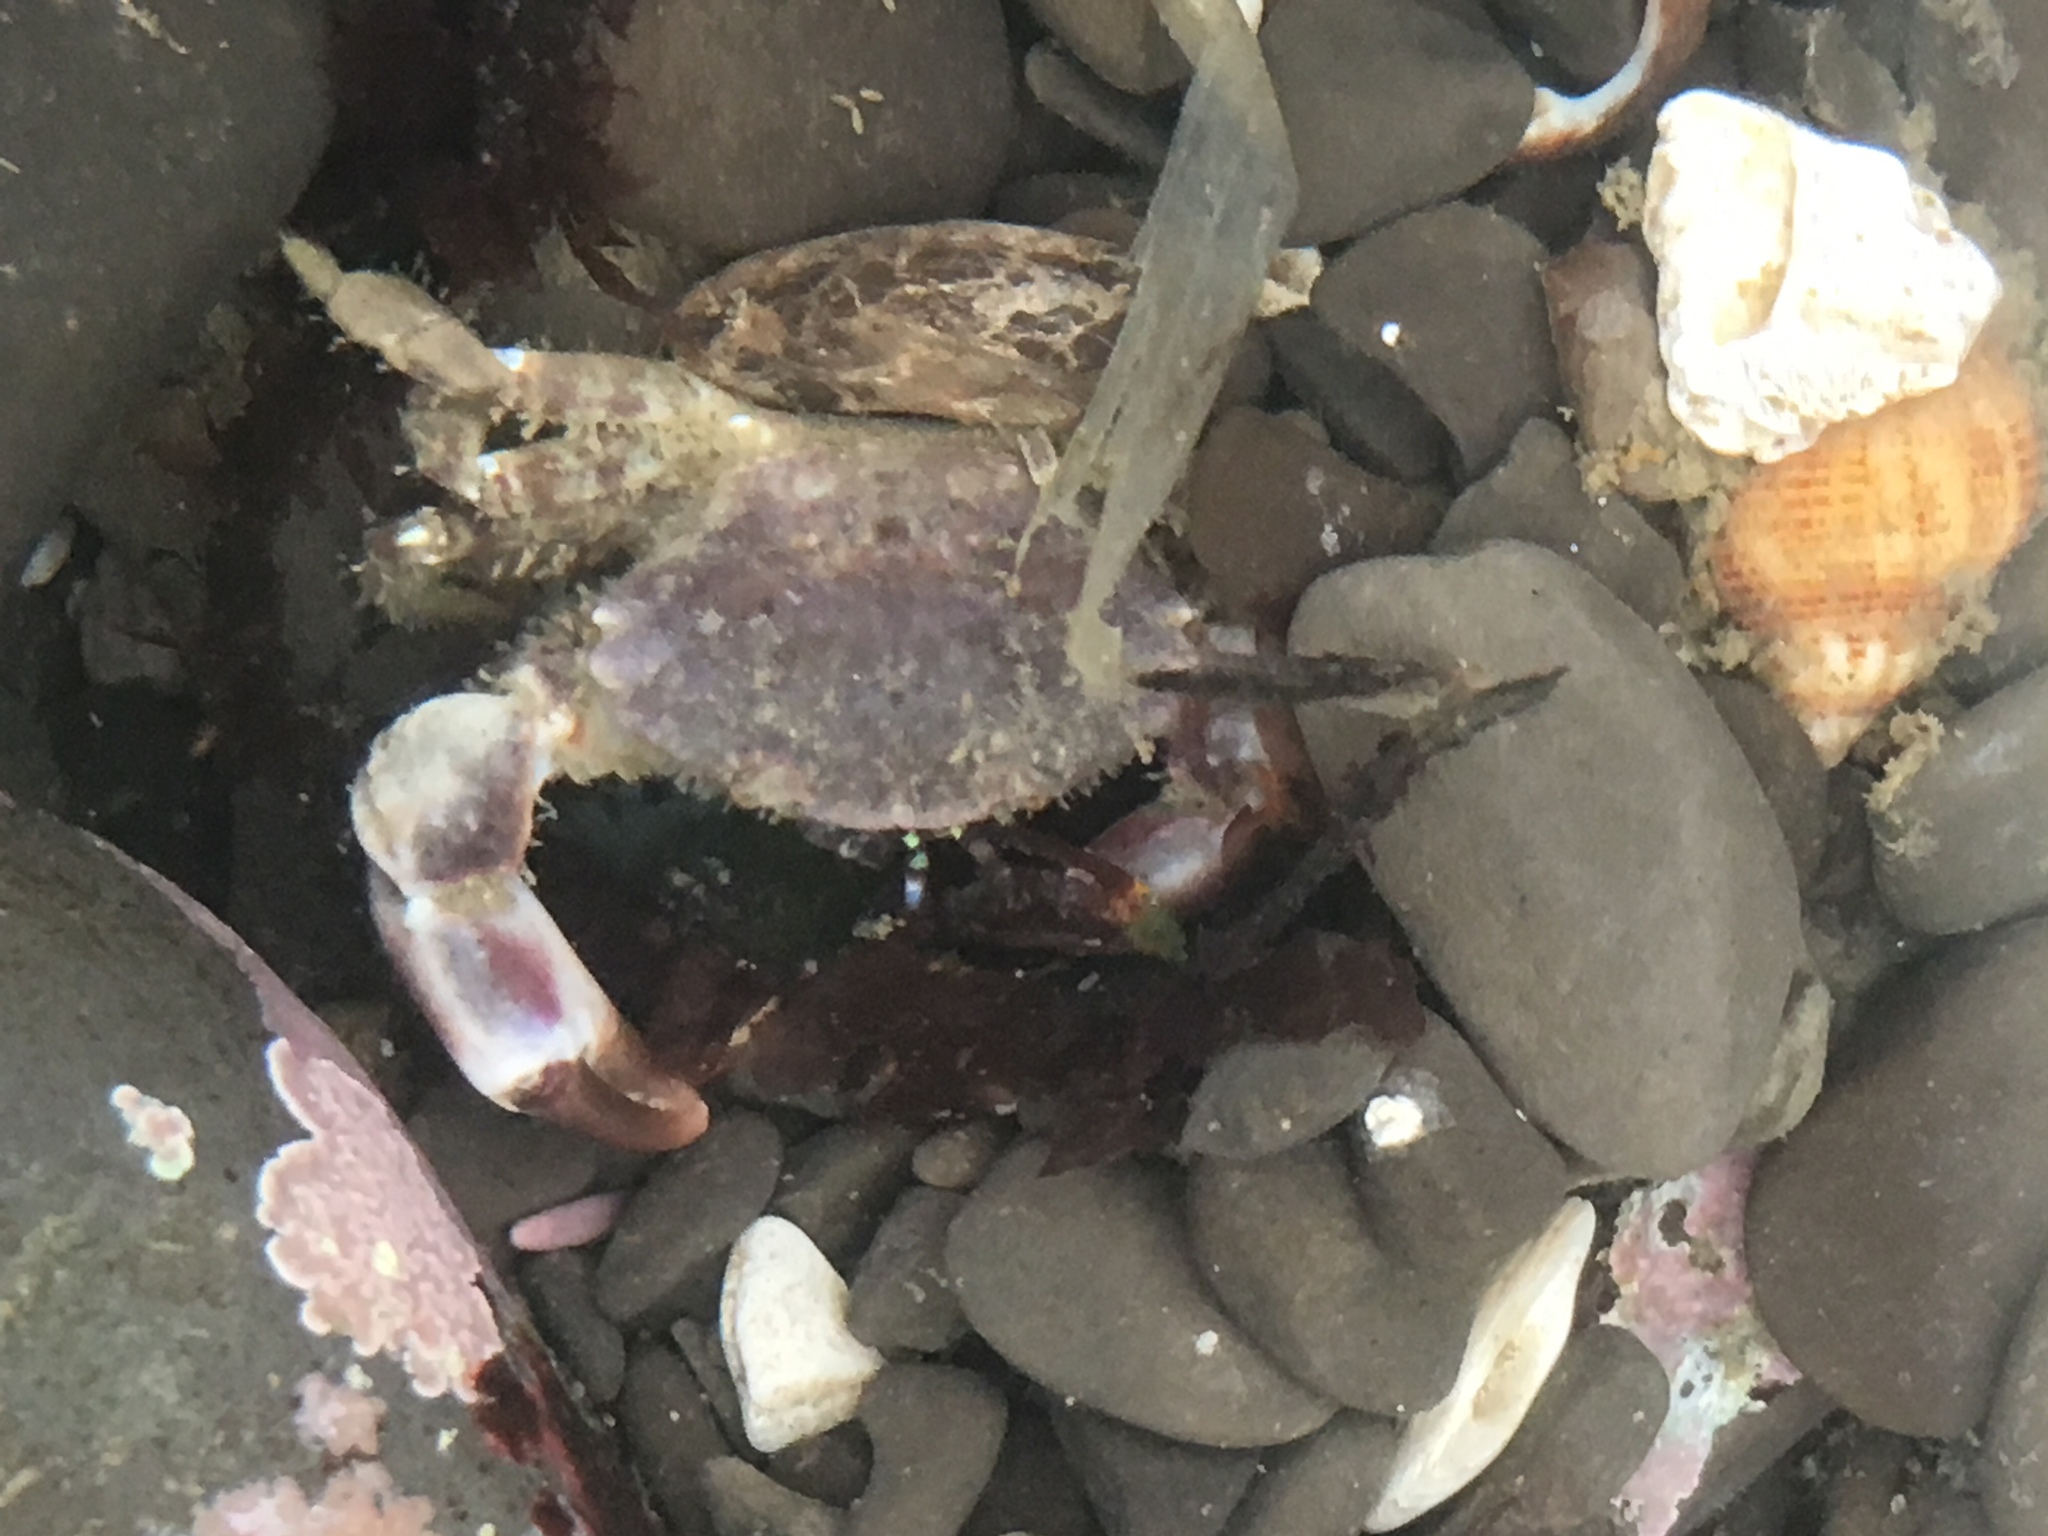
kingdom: Animalia
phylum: Arthropoda
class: Malacostraca
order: Decapoda
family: Panopeidae
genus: Lophopanopeus
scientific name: Lophopanopeus bellus
